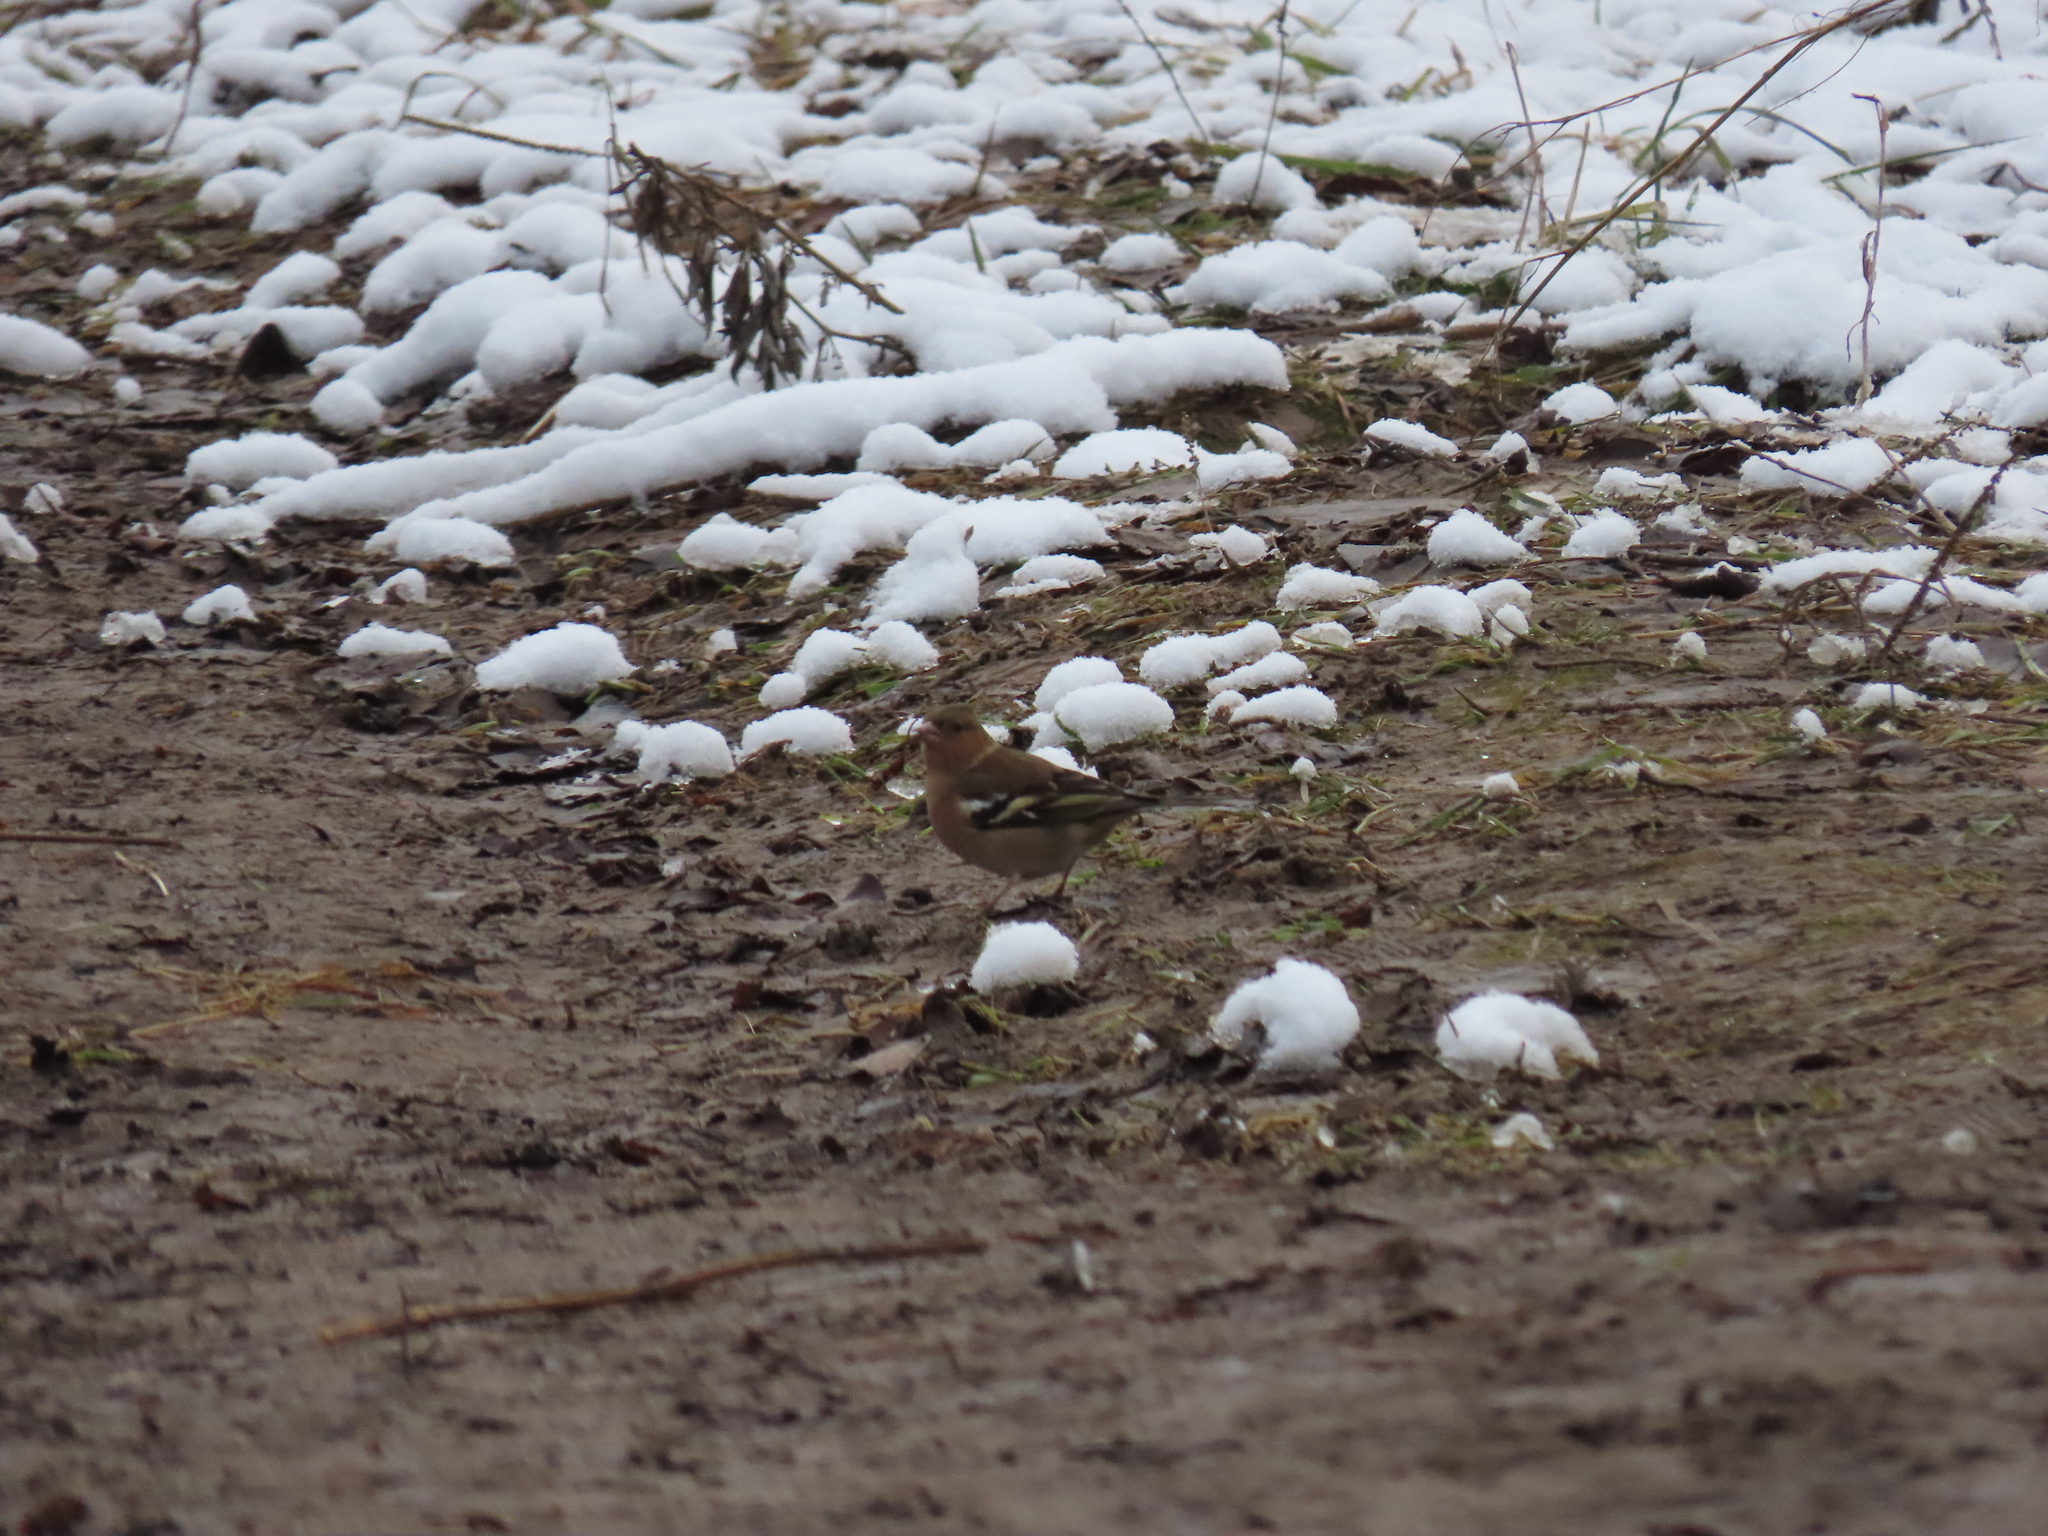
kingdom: Animalia
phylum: Chordata
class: Aves
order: Passeriformes
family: Fringillidae
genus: Fringilla
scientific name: Fringilla coelebs
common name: Common chaffinch
